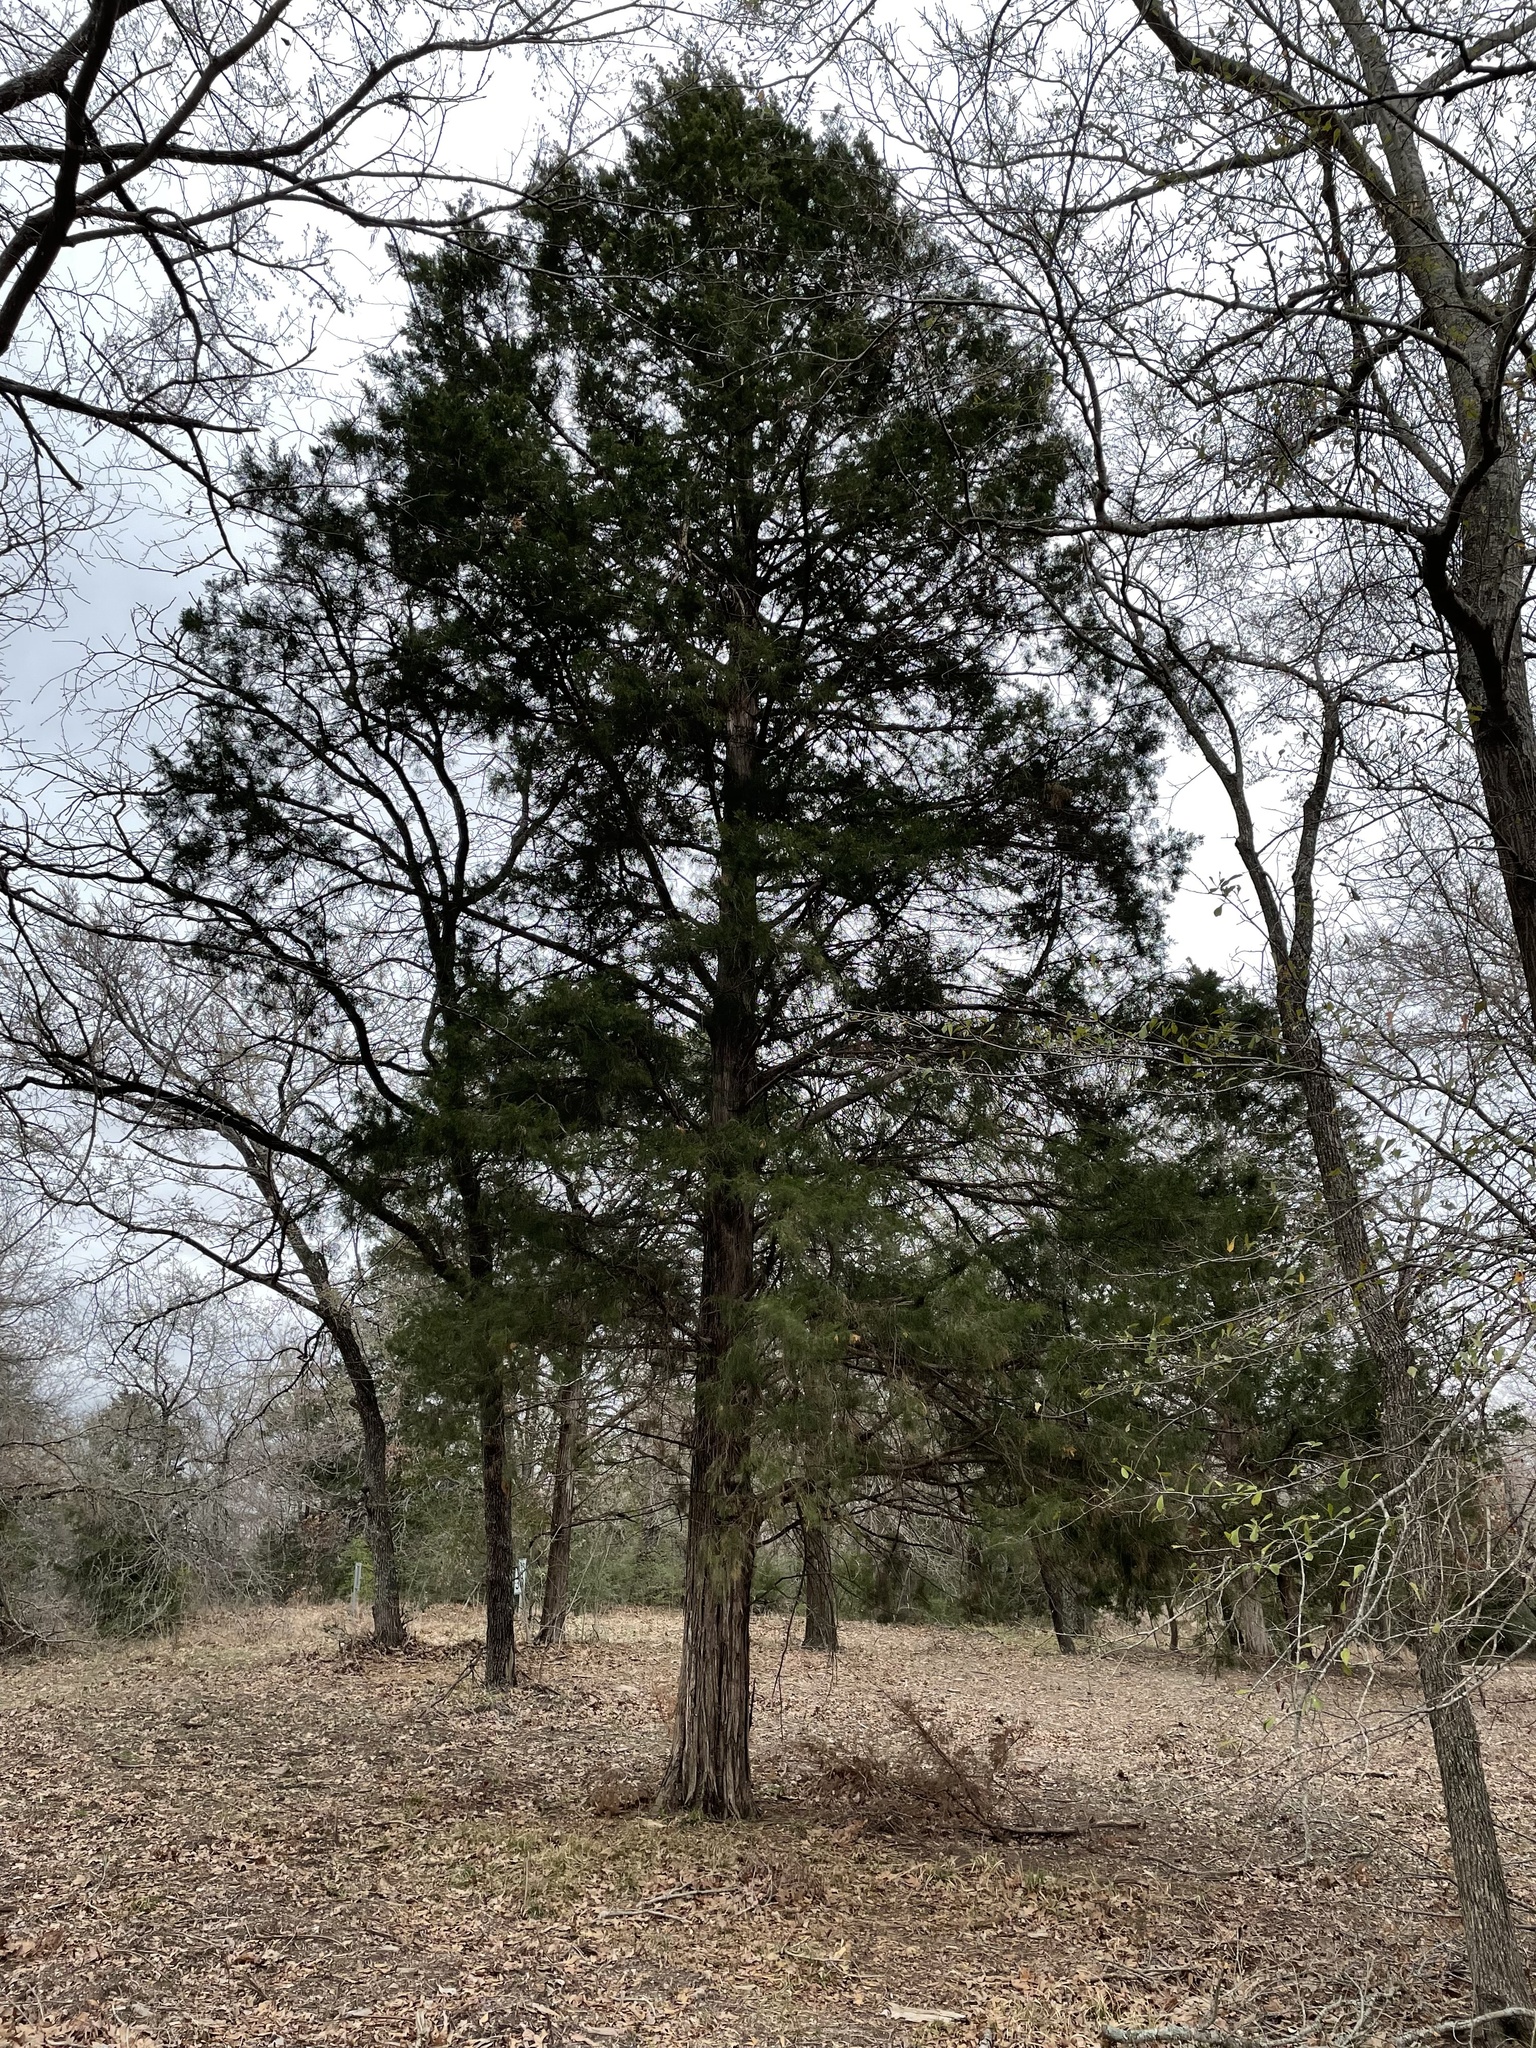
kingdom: Plantae
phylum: Tracheophyta
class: Pinopsida
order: Pinales
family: Cupressaceae
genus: Juniperus
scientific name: Juniperus virginiana
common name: Red juniper
